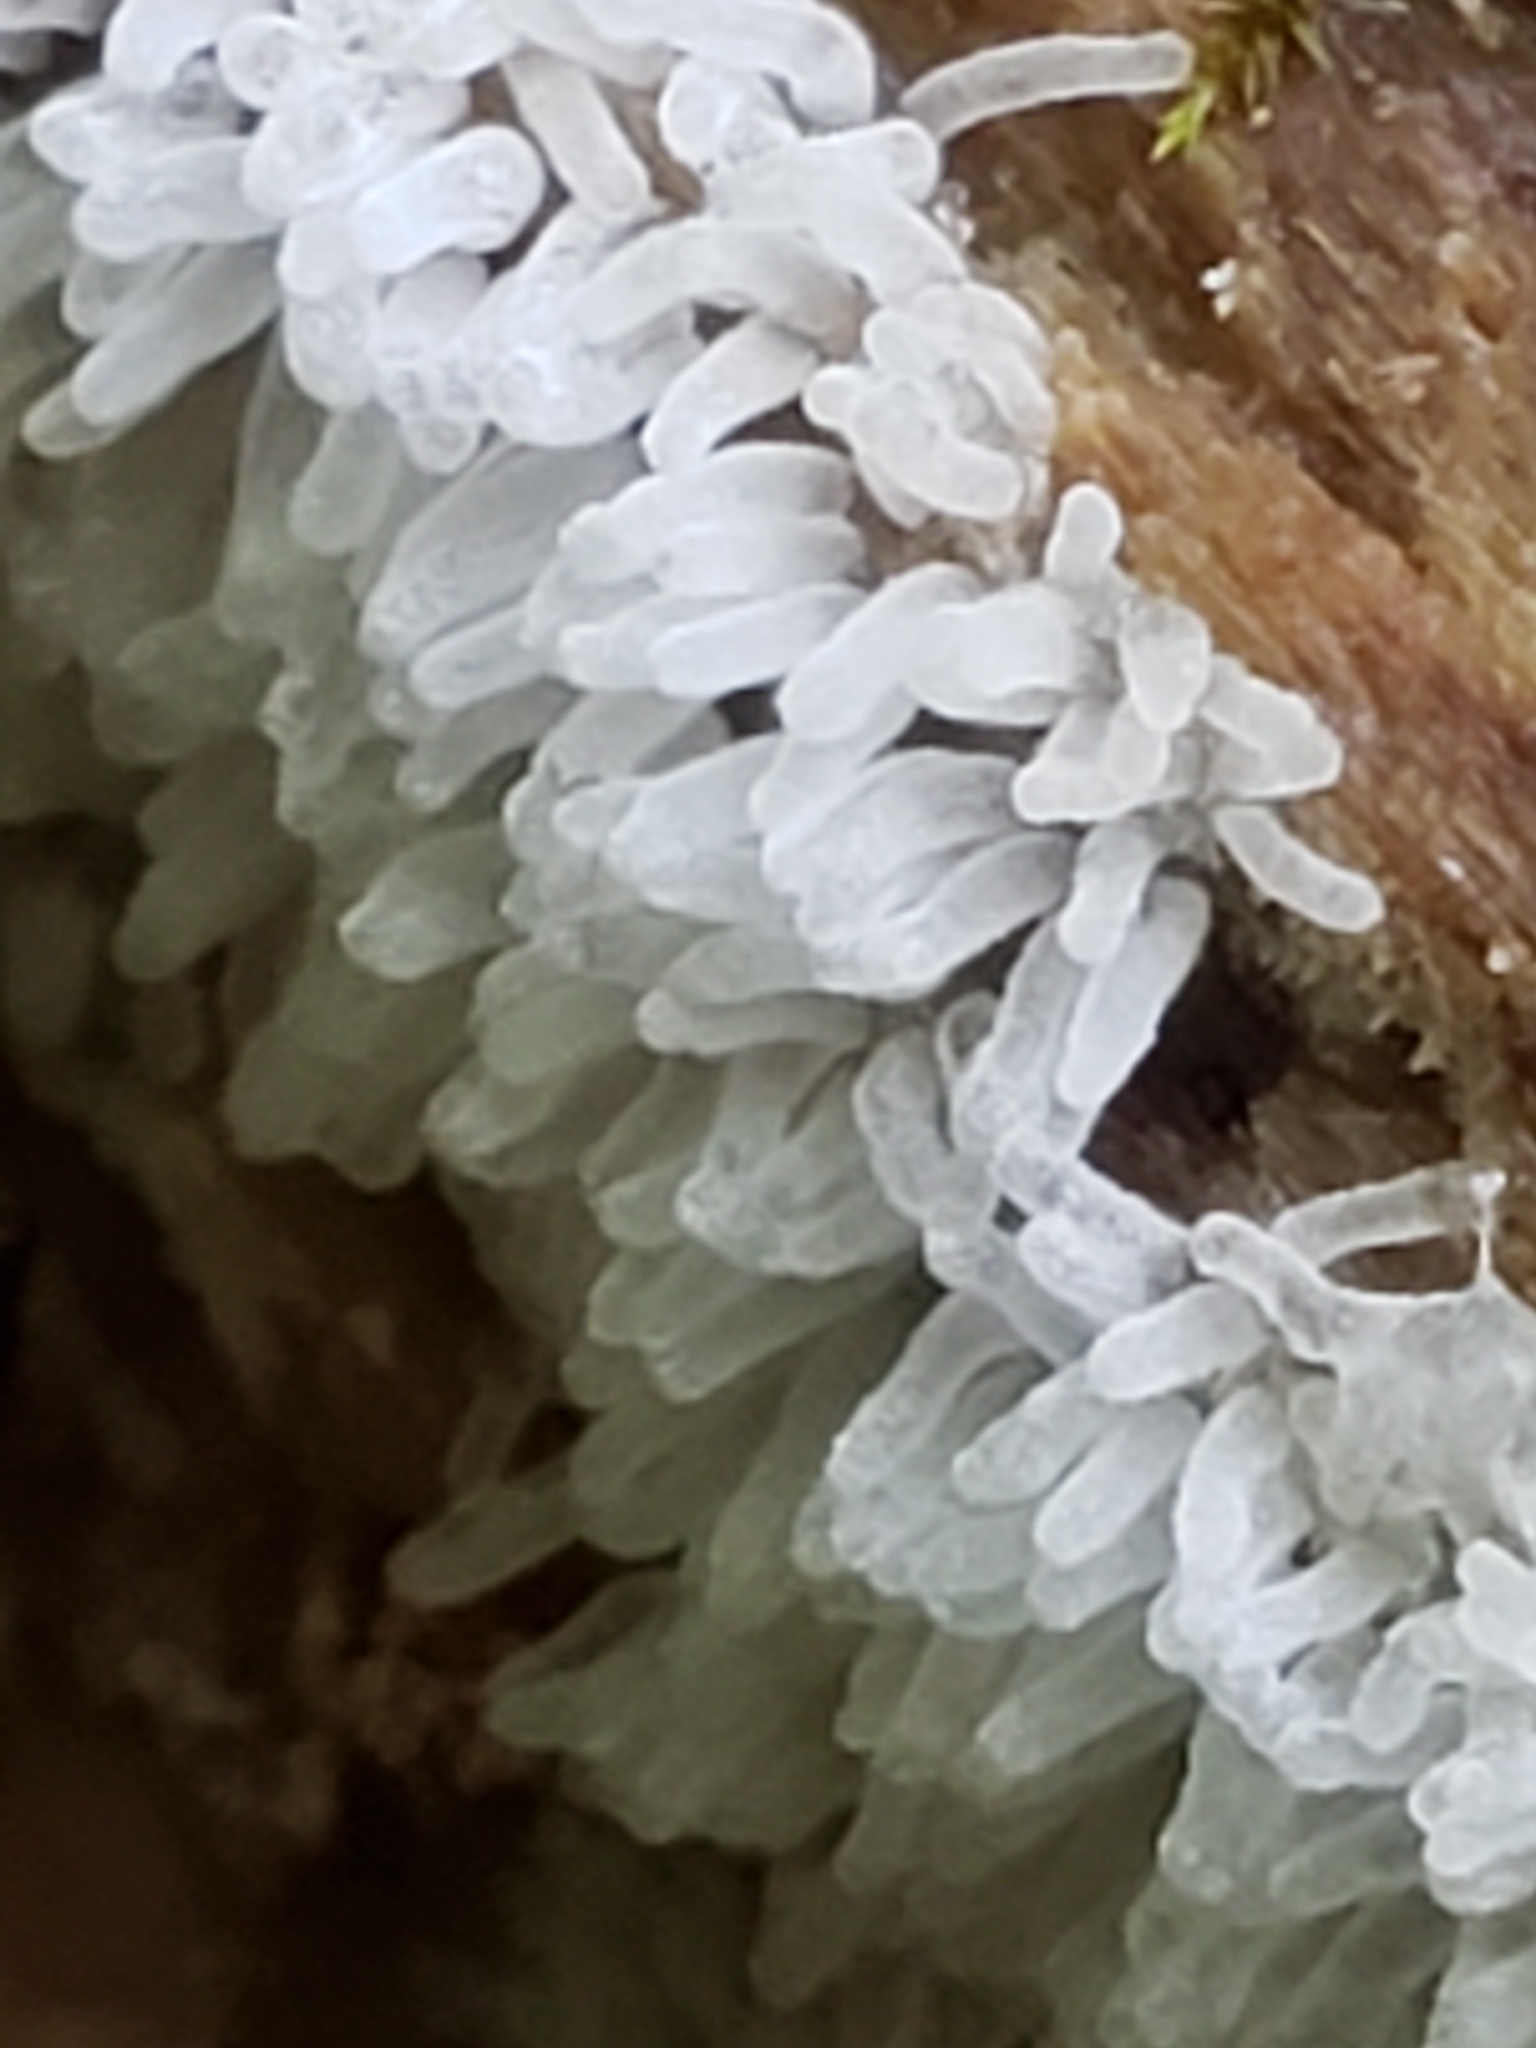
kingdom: Protozoa
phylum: Mycetozoa
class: Protosteliomycetes
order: Ceratiomyxales
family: Ceratiomyxaceae
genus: Ceratiomyxa
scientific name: Ceratiomyxa fruticulosa
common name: Honeycomb coral slime mold
